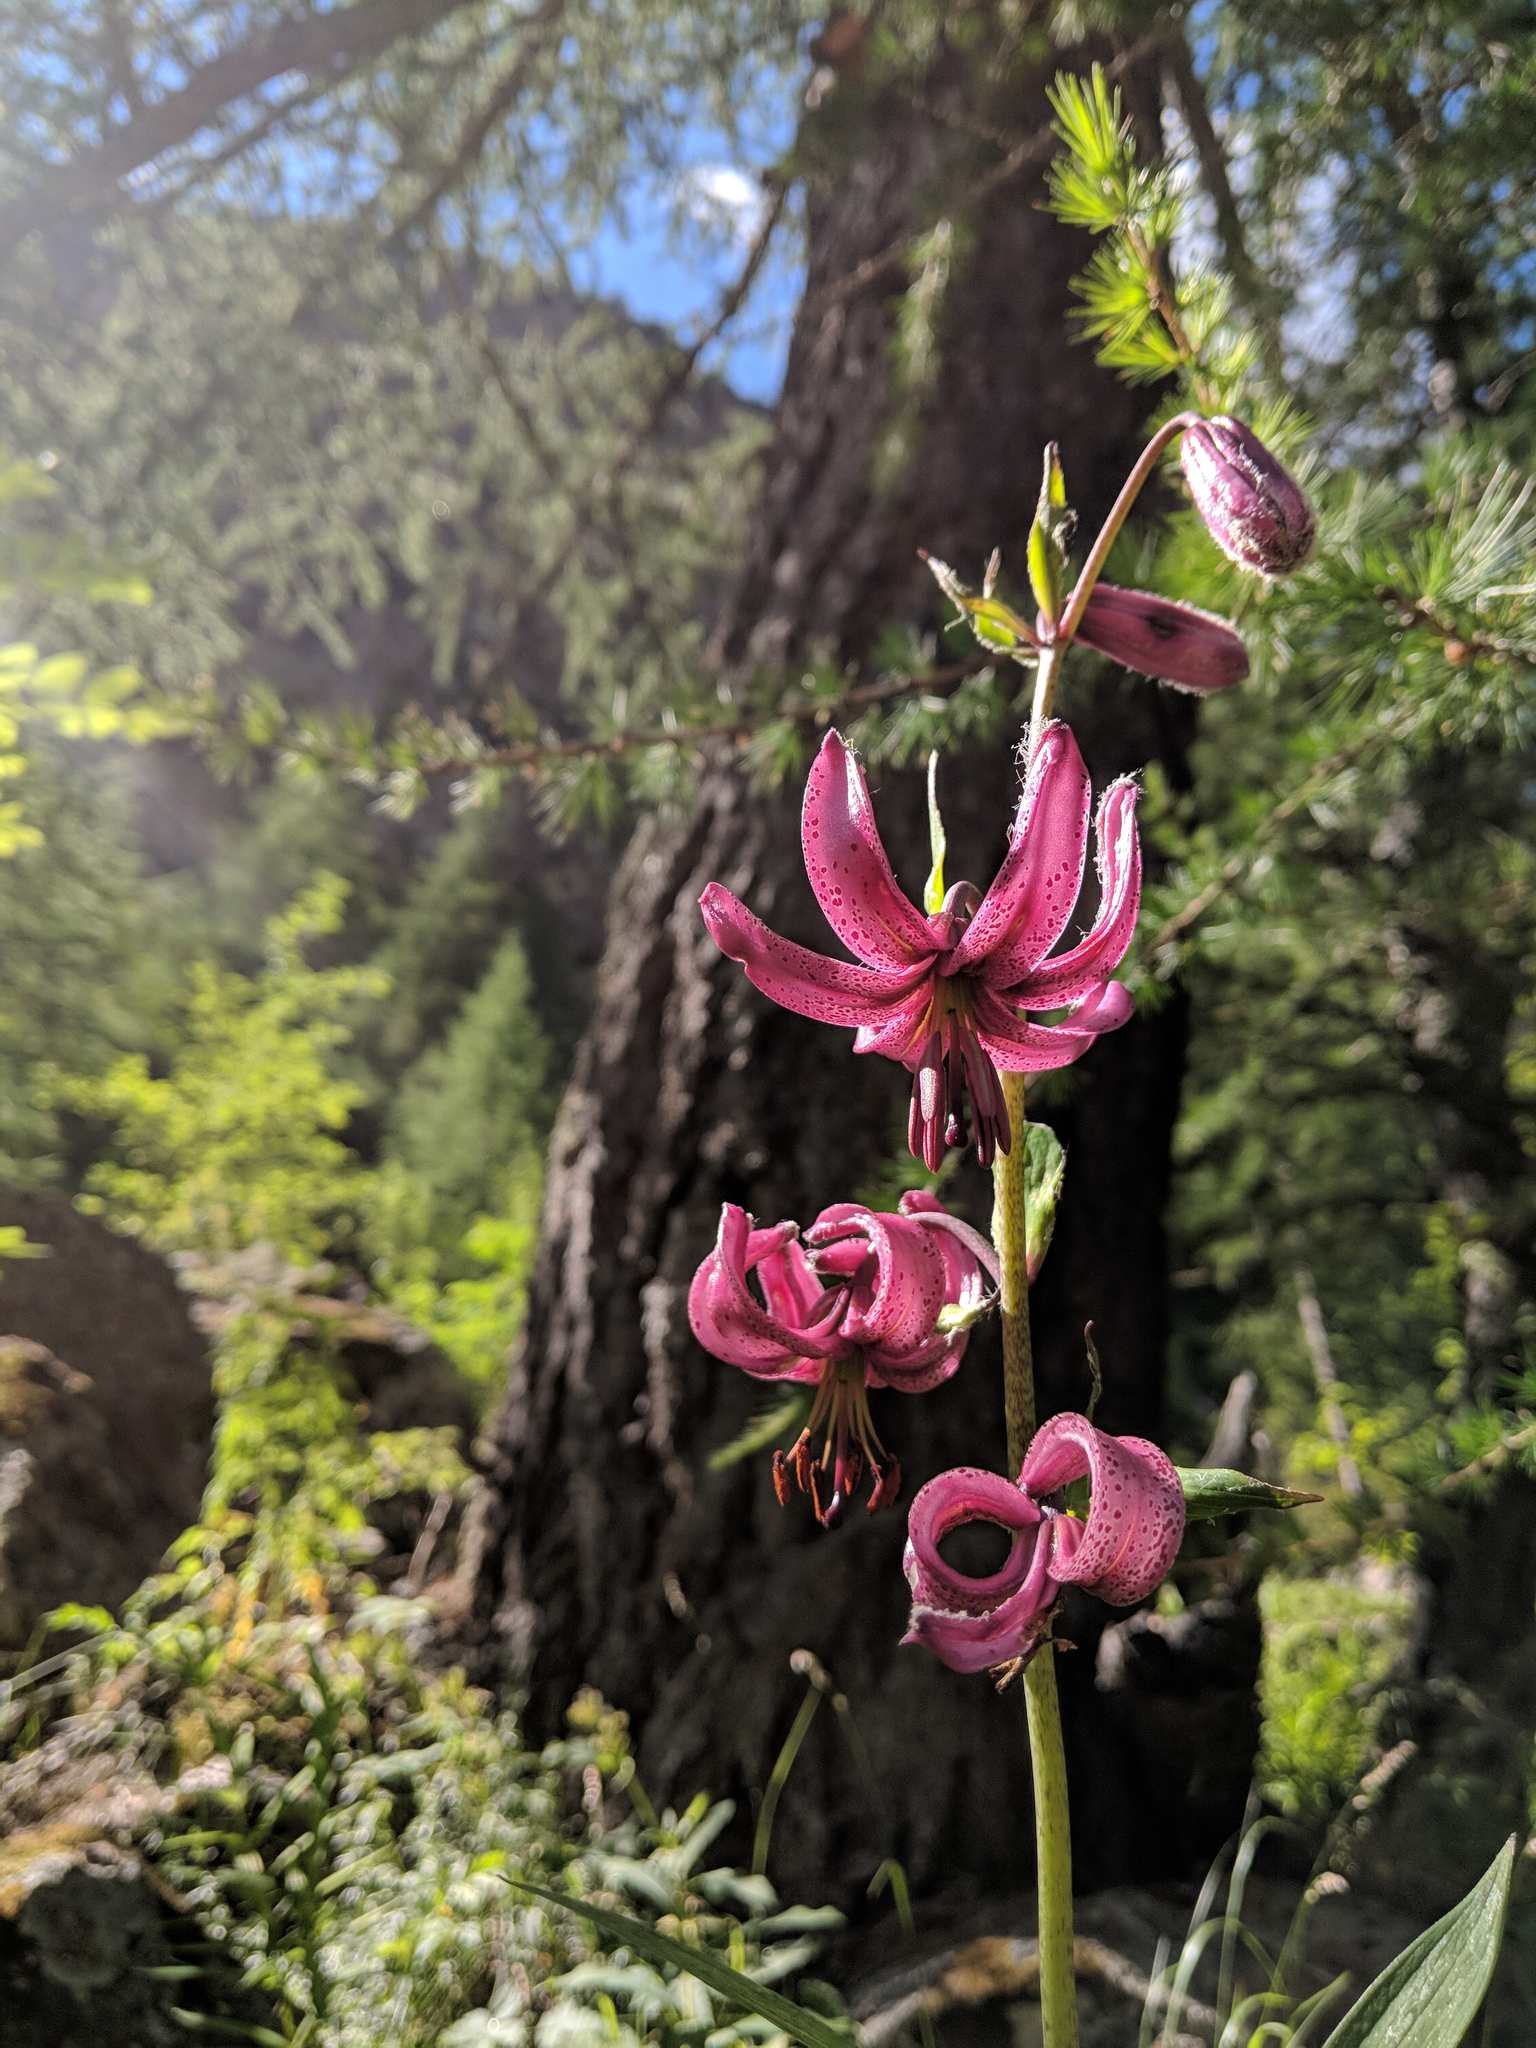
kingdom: Plantae
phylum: Tracheophyta
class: Liliopsida
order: Liliales
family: Liliaceae
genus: Lilium
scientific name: Lilium martagon
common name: Martagon lily
